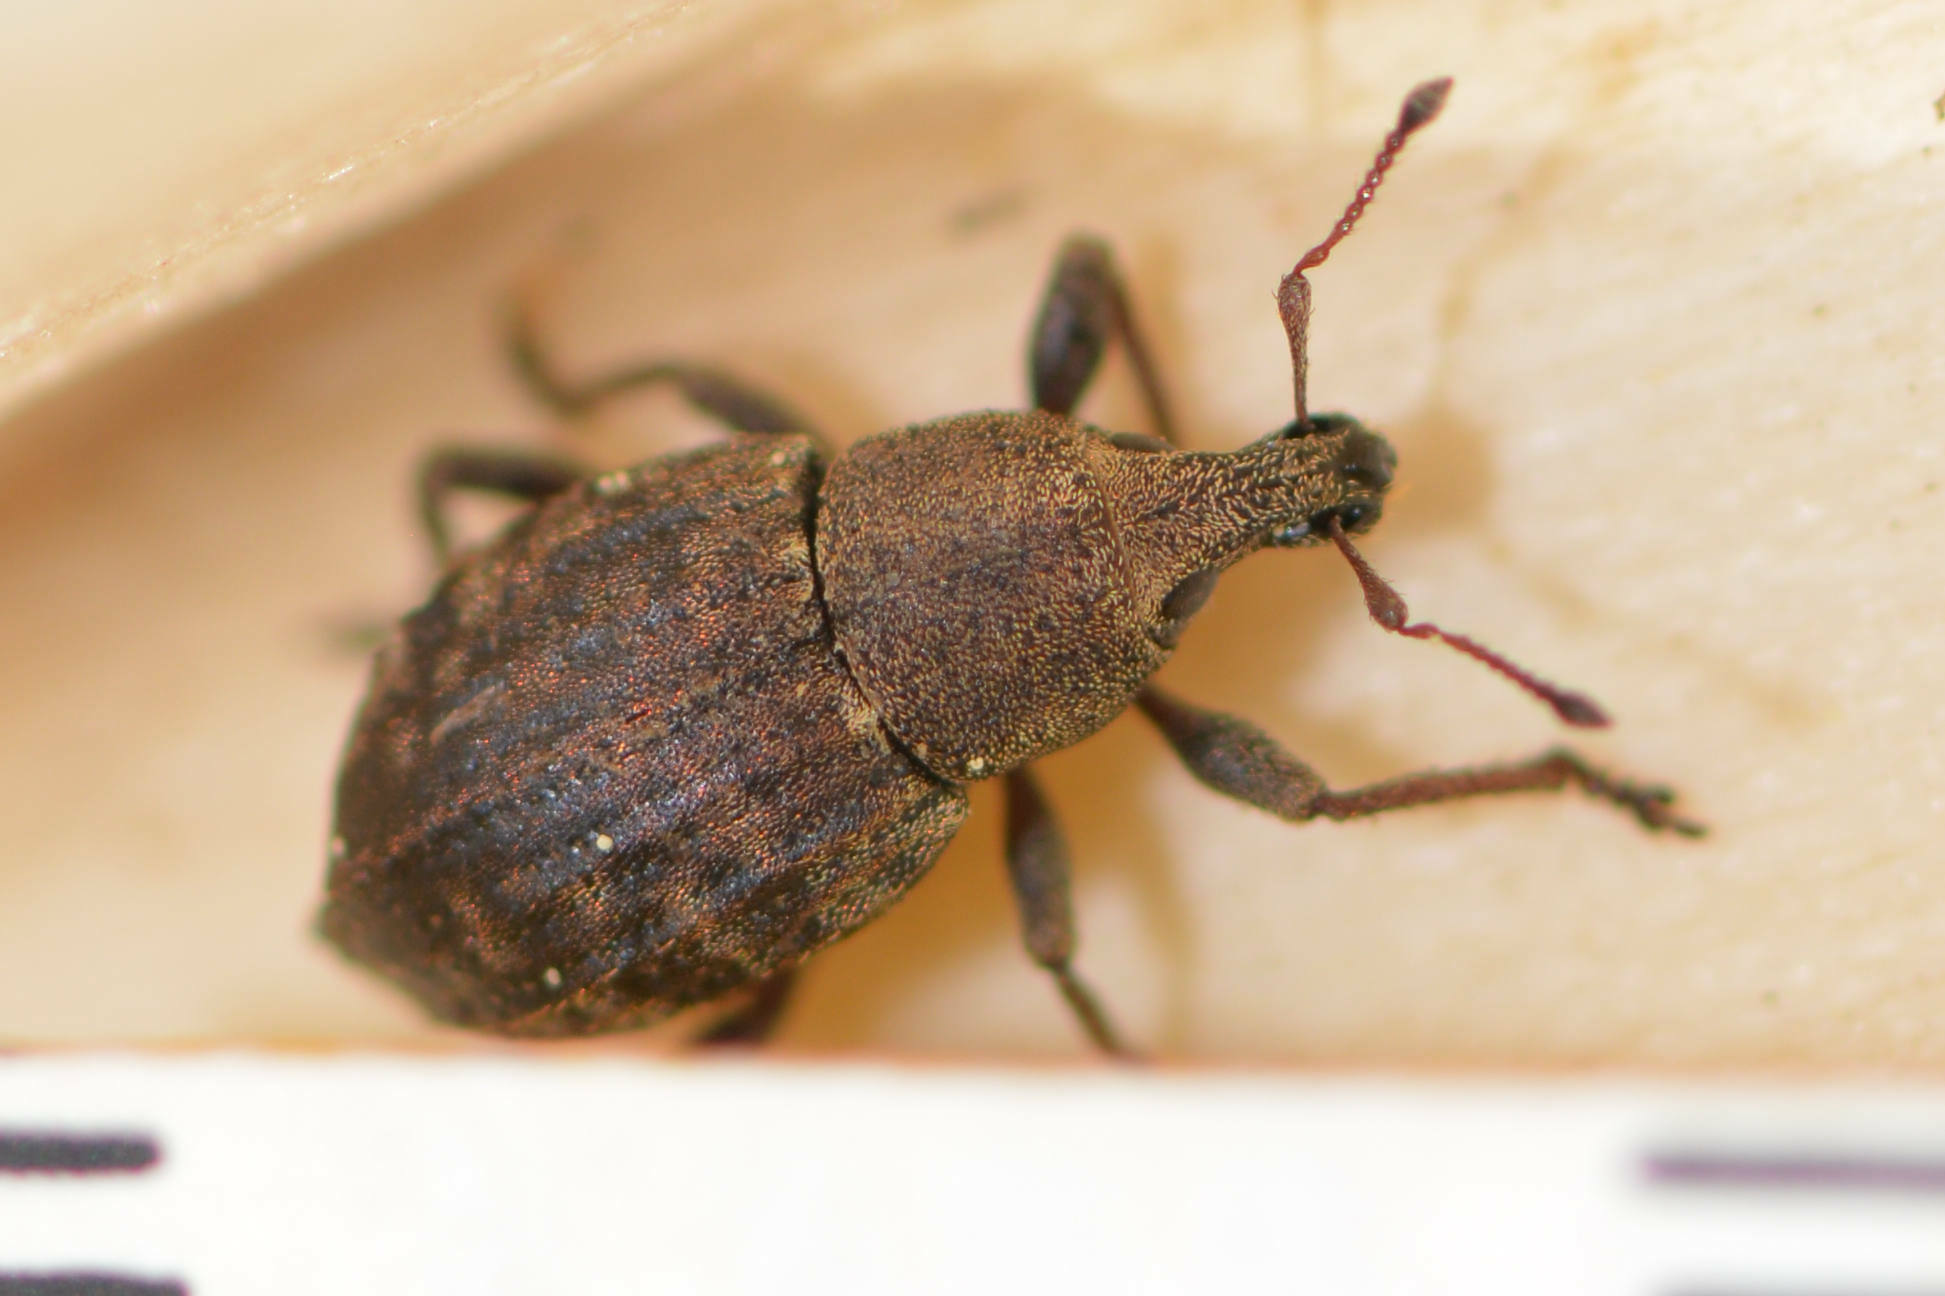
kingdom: Animalia
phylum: Arthropoda
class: Insecta
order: Coleoptera
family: Curculionidae
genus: Tropiphorus
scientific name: Tropiphorus elevatus
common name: Weevil
